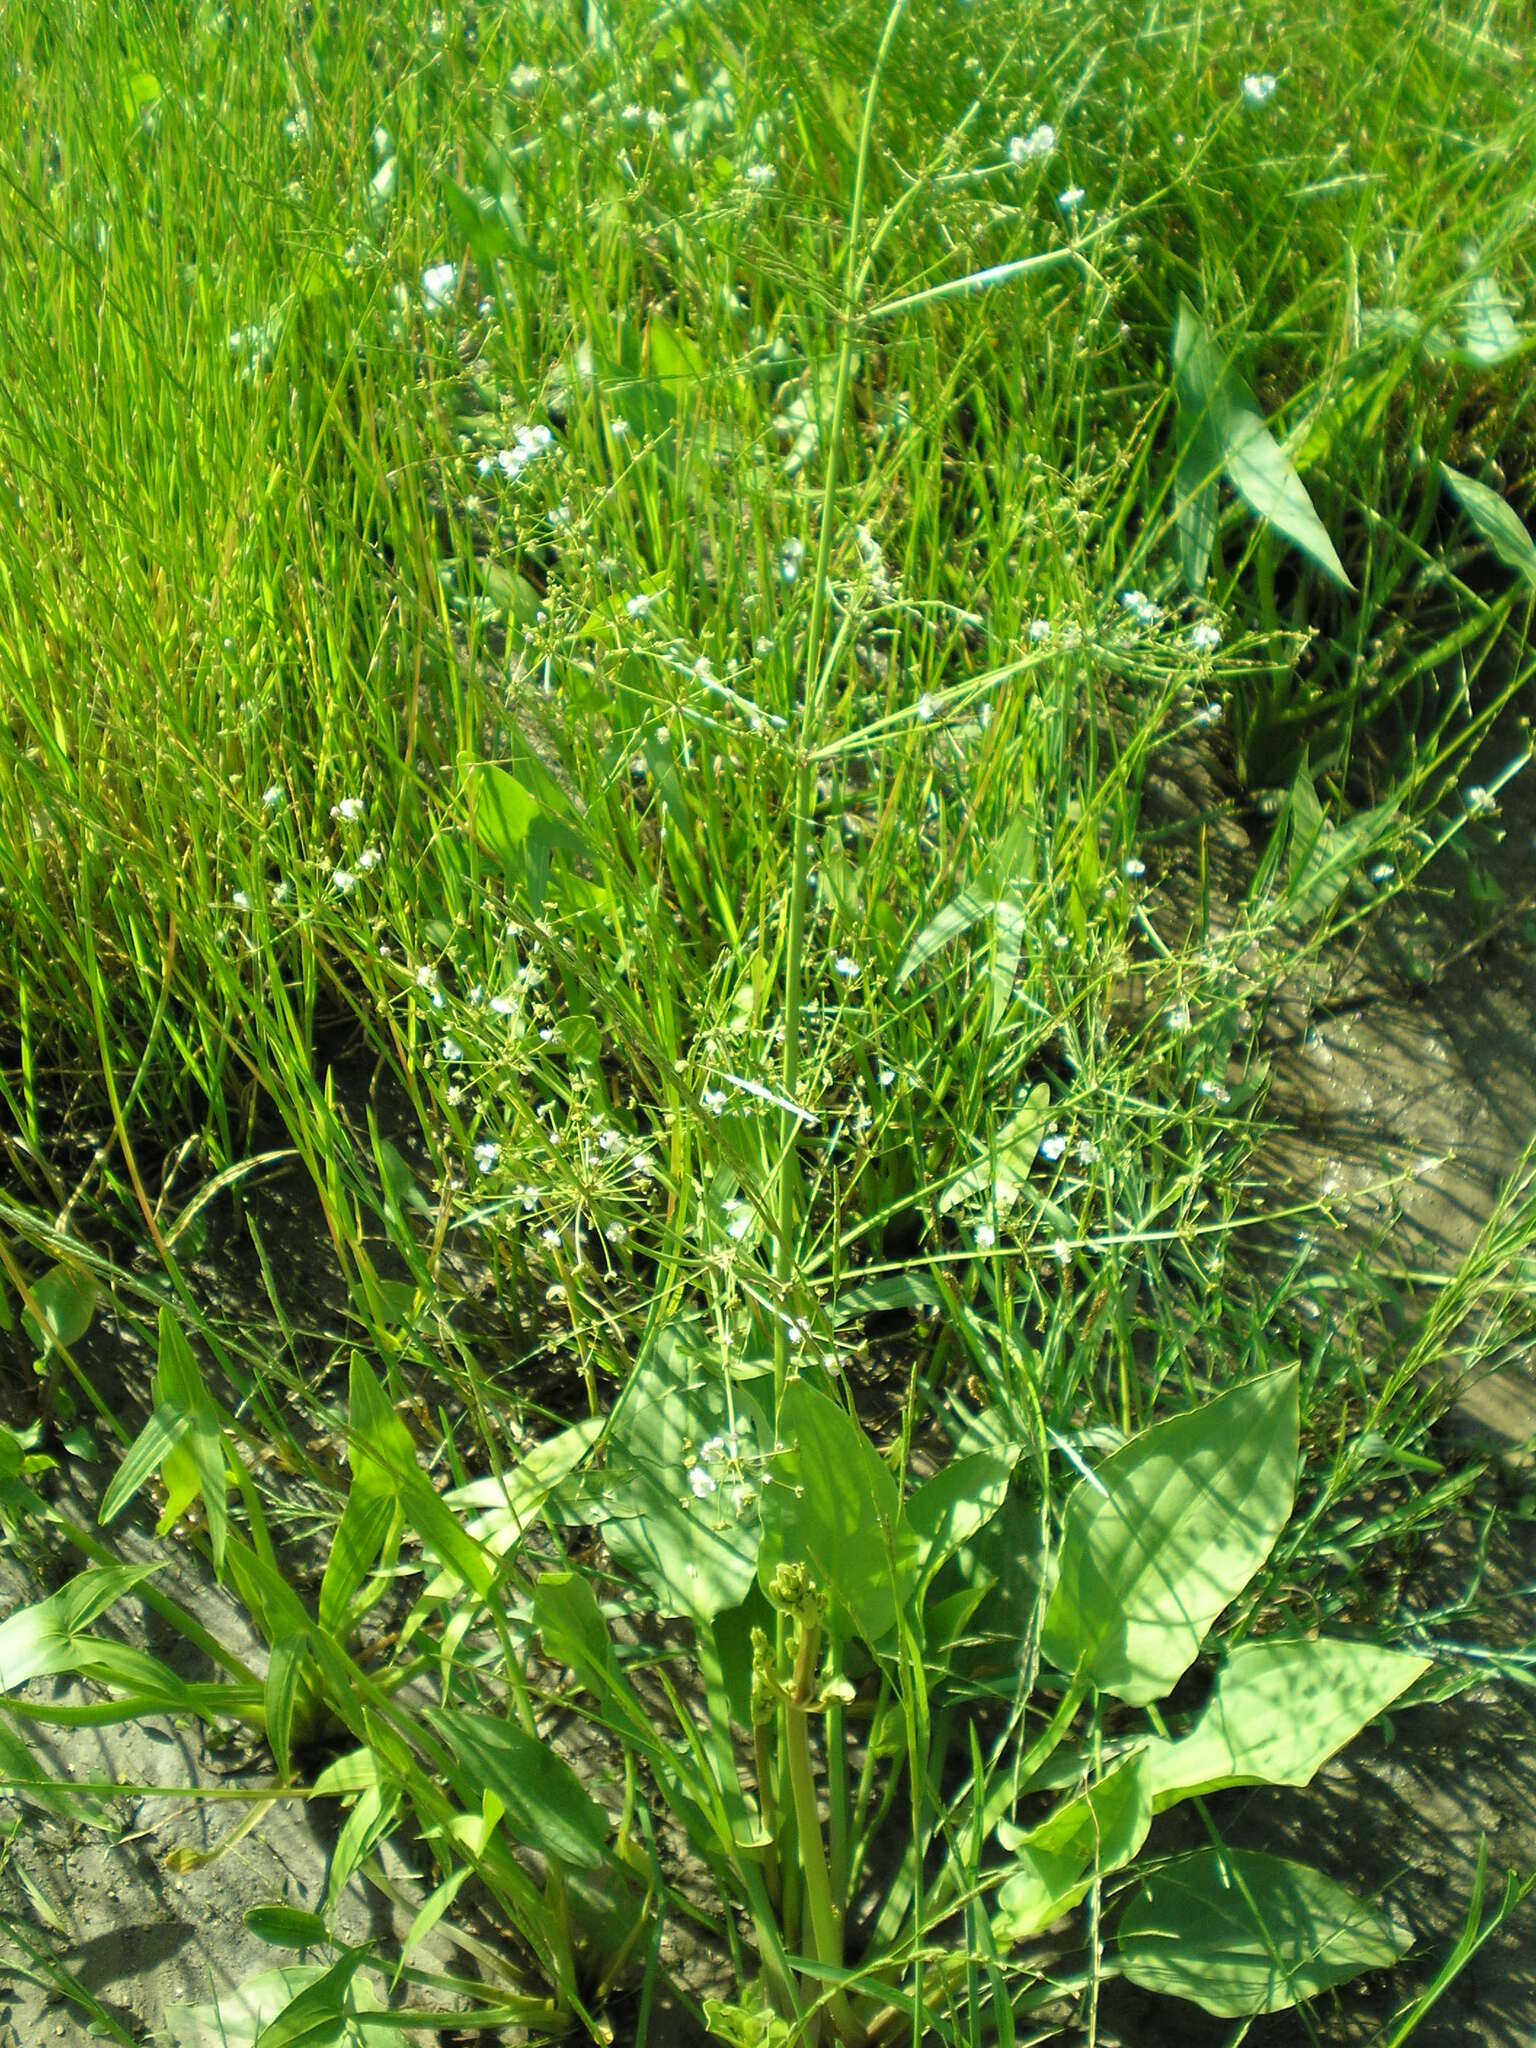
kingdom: Plantae
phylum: Tracheophyta
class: Liliopsida
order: Alismatales
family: Alismataceae
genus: Alisma
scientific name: Alisma plantago-aquatica
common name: Water-plantain
